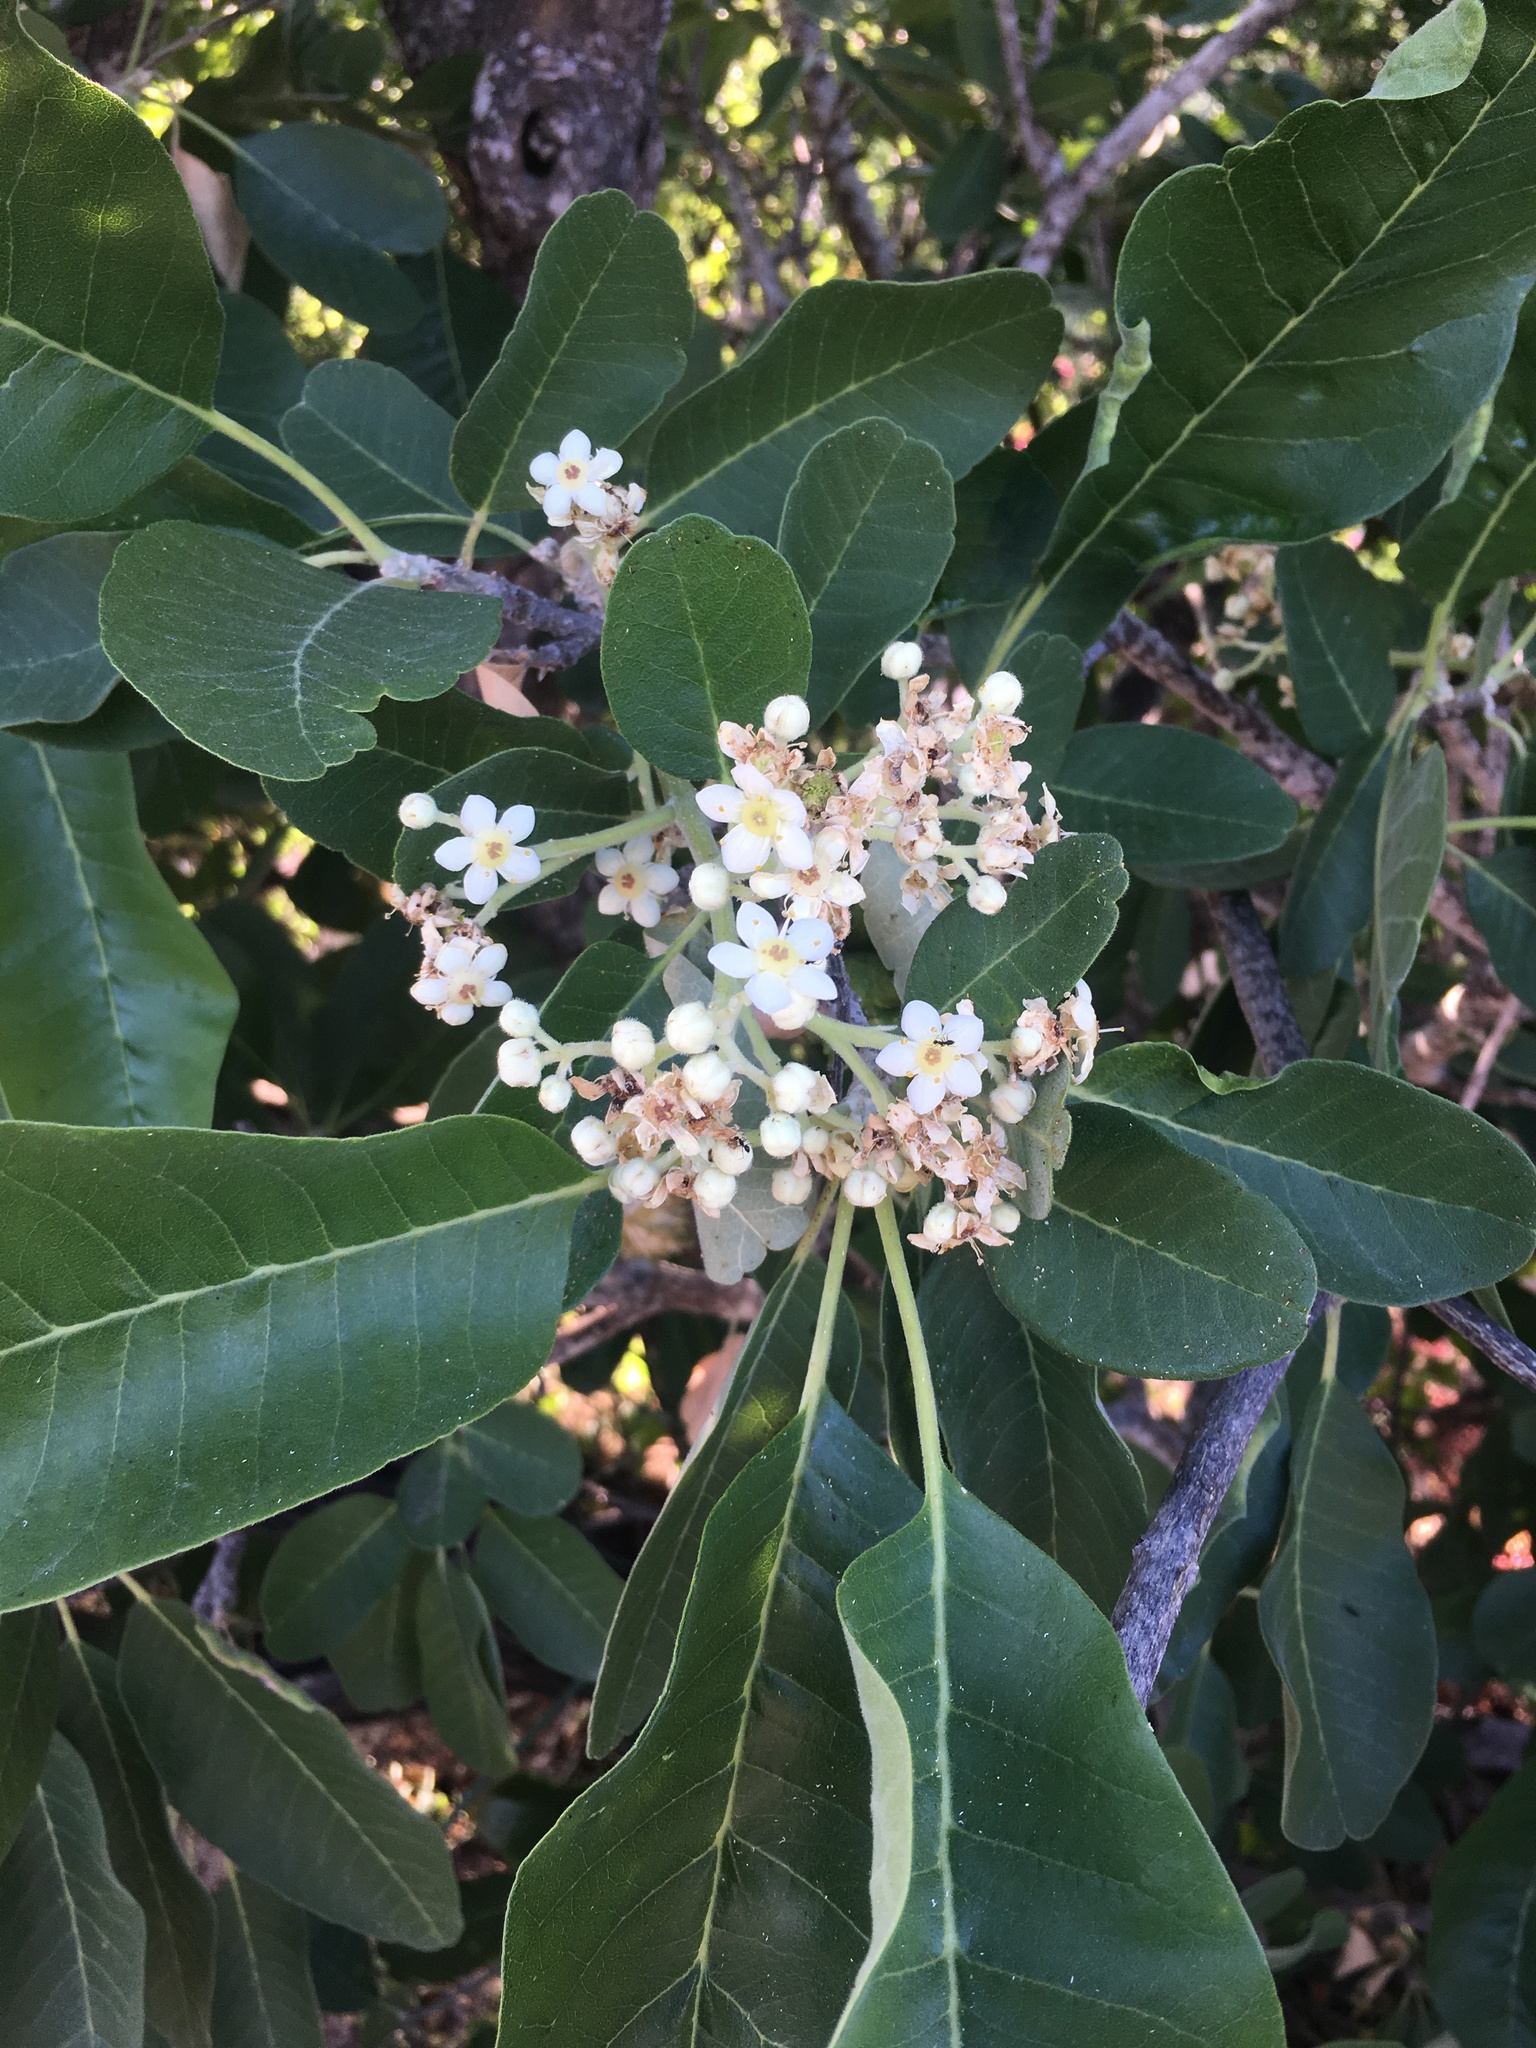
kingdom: Plantae
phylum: Tracheophyta
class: Magnoliopsida
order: Sapindales
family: Rutaceae
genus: Esenbeckia
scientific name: Esenbeckia flava
